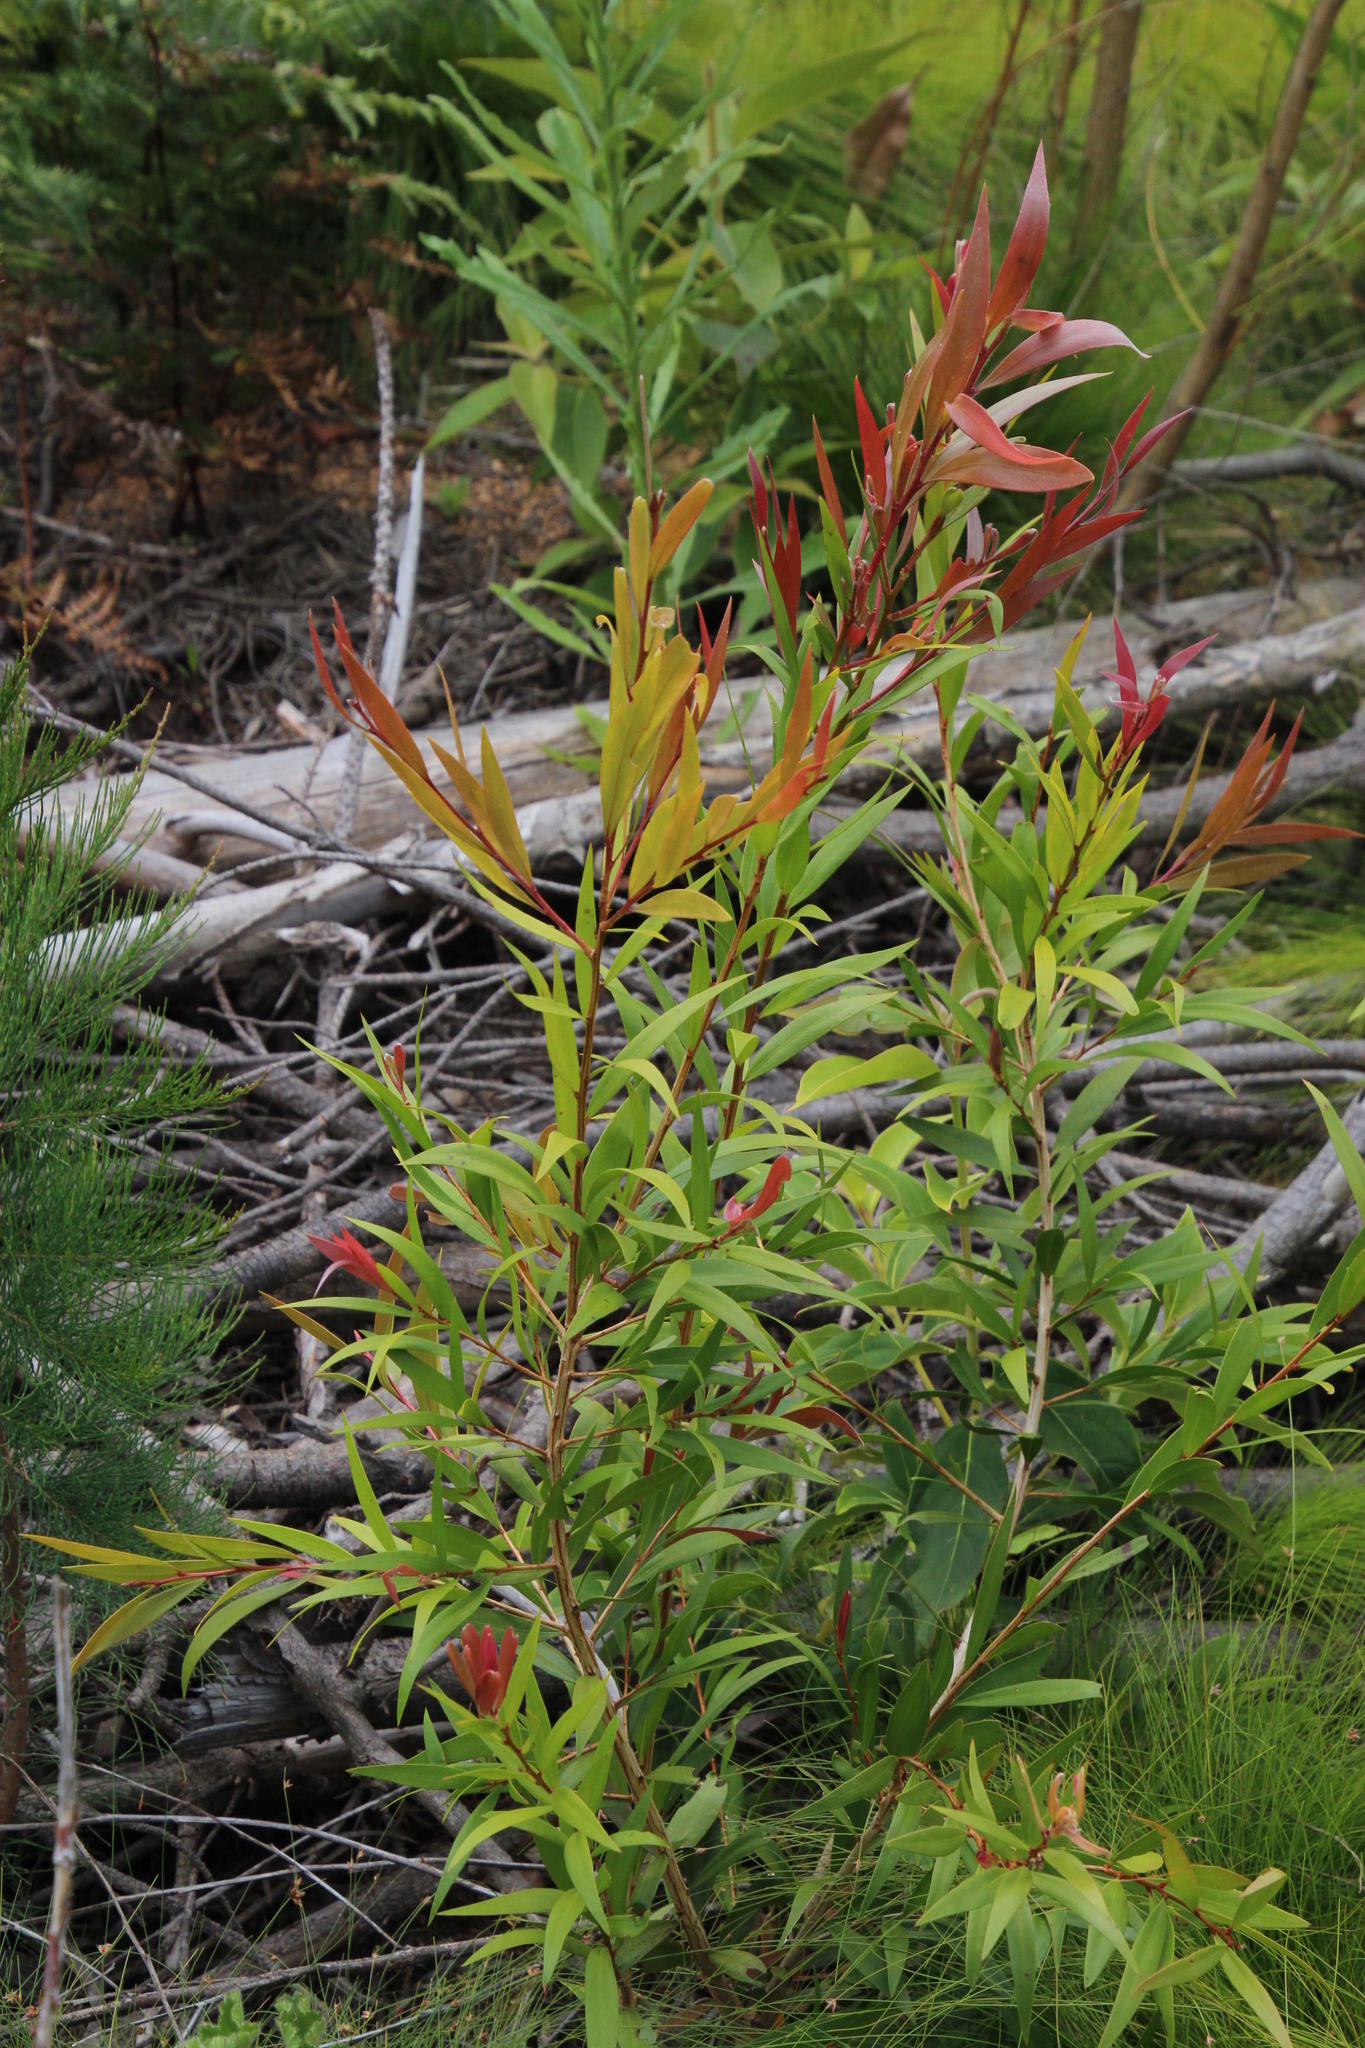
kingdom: Plantae
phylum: Tracheophyta
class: Magnoliopsida
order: Myrtales
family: Myrtaceae
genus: Callistemon
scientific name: Callistemon salignus
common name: White bottlebrush
